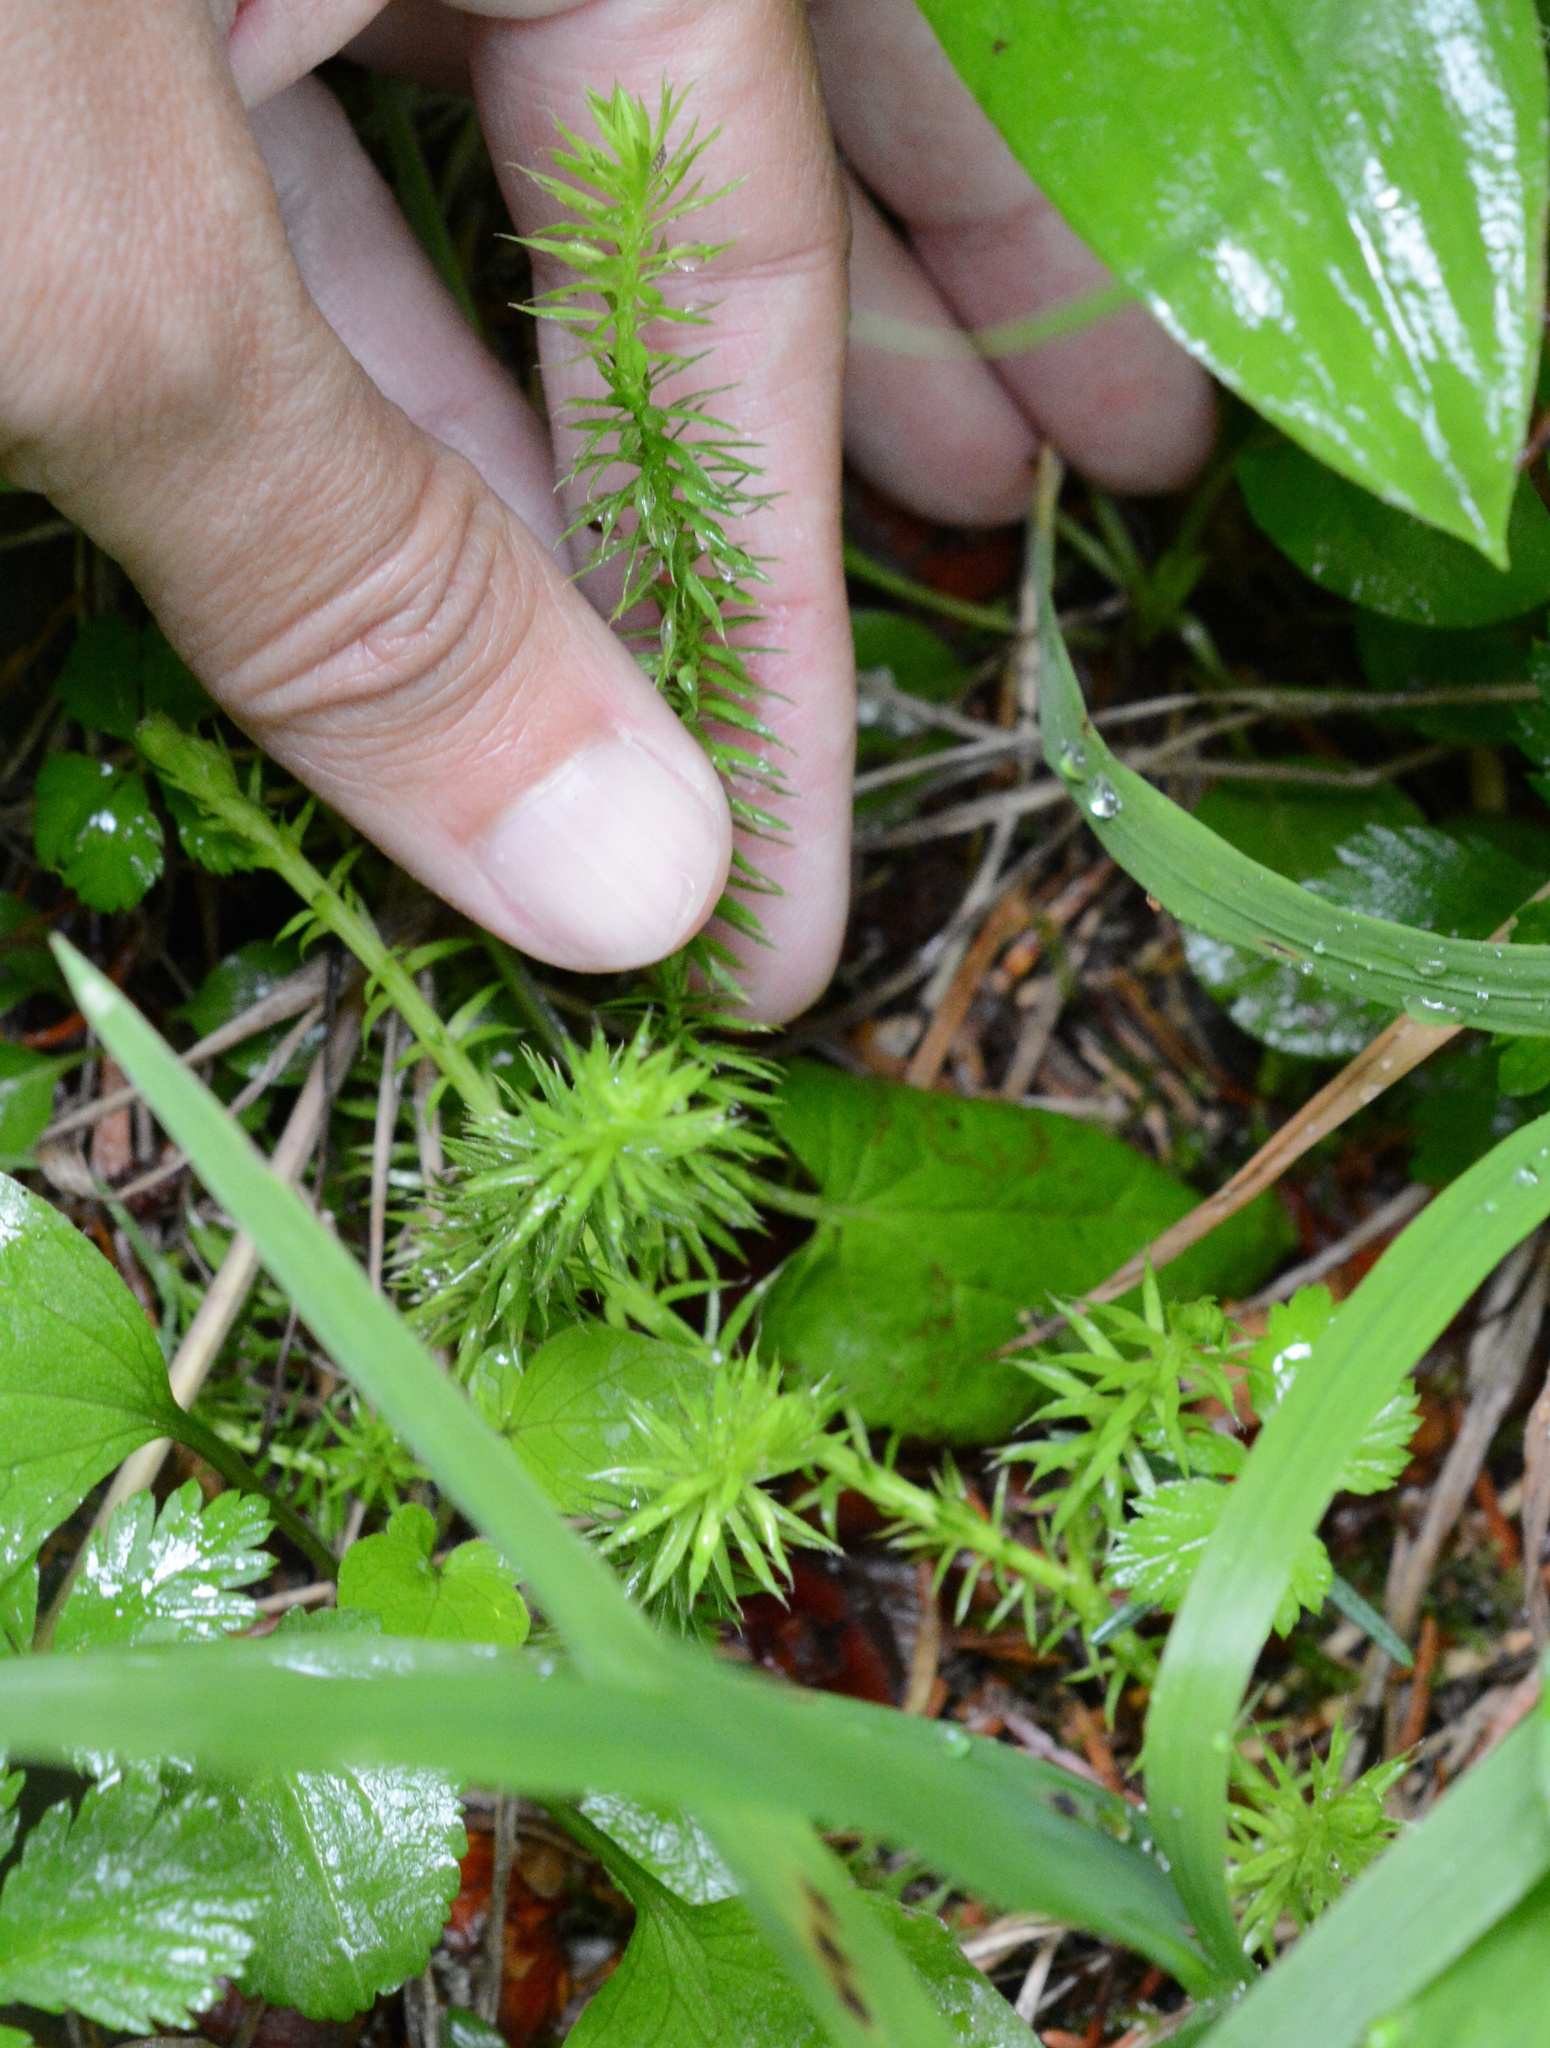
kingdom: Plantae
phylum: Tracheophyta
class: Lycopodiopsida
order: Lycopodiales
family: Lycopodiaceae
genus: Spinulum
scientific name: Spinulum annotinum
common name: Interrupted club-moss
